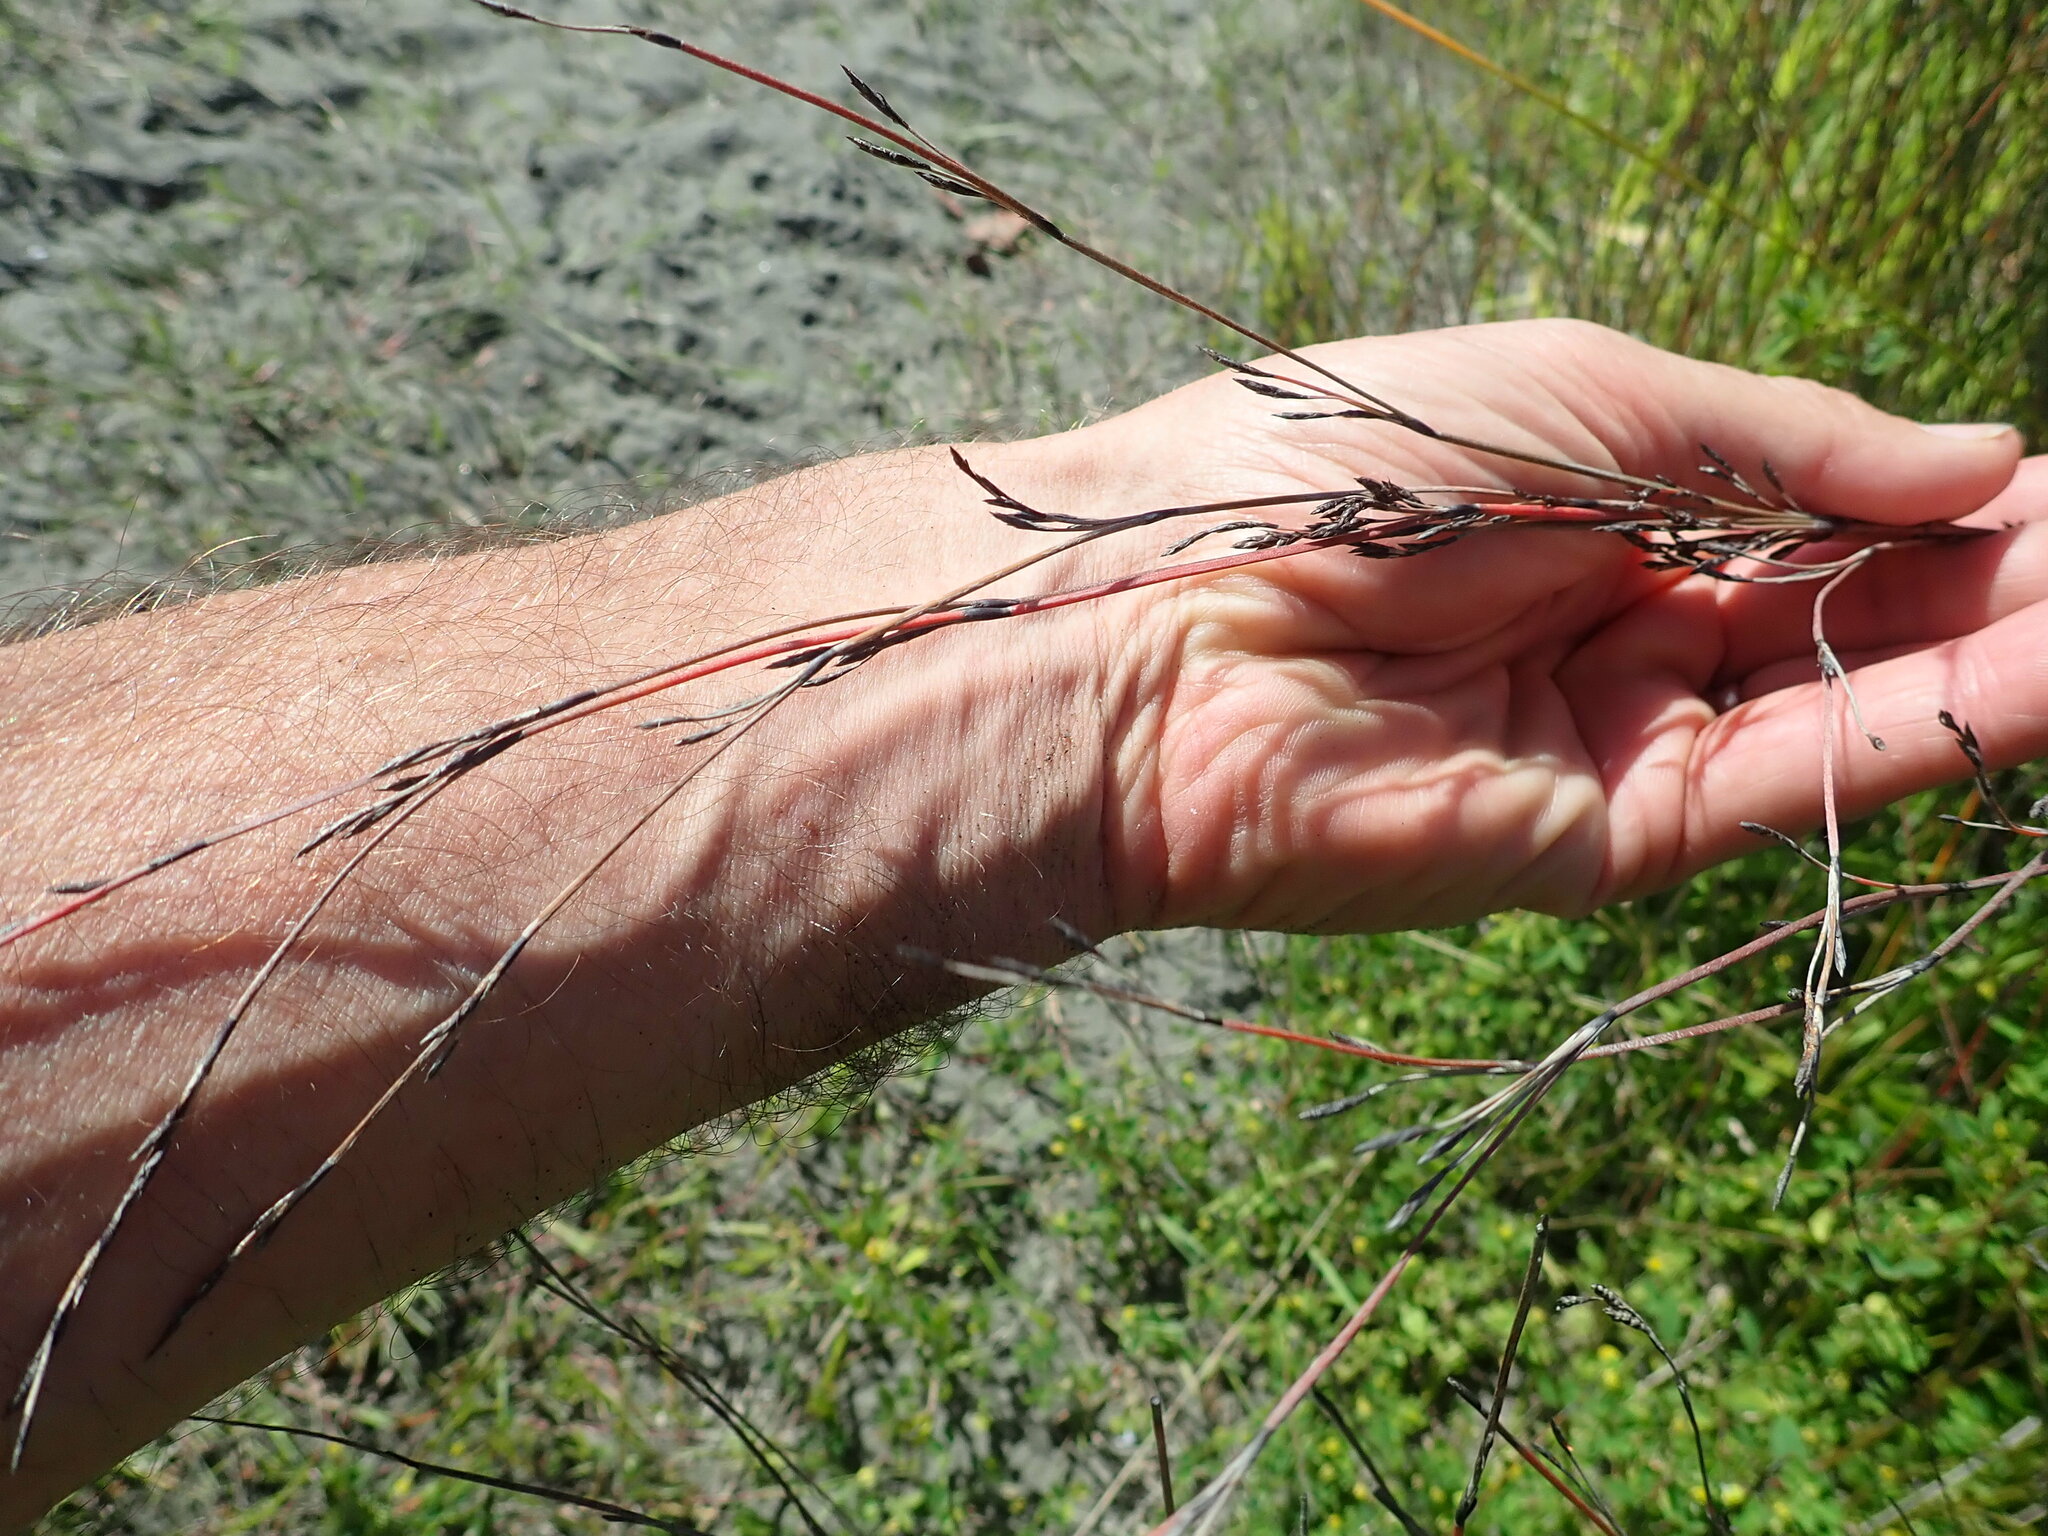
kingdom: Plantae
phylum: Tracheophyta
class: Liliopsida
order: Poales
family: Restionaceae
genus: Apodasmia
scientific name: Apodasmia similis
